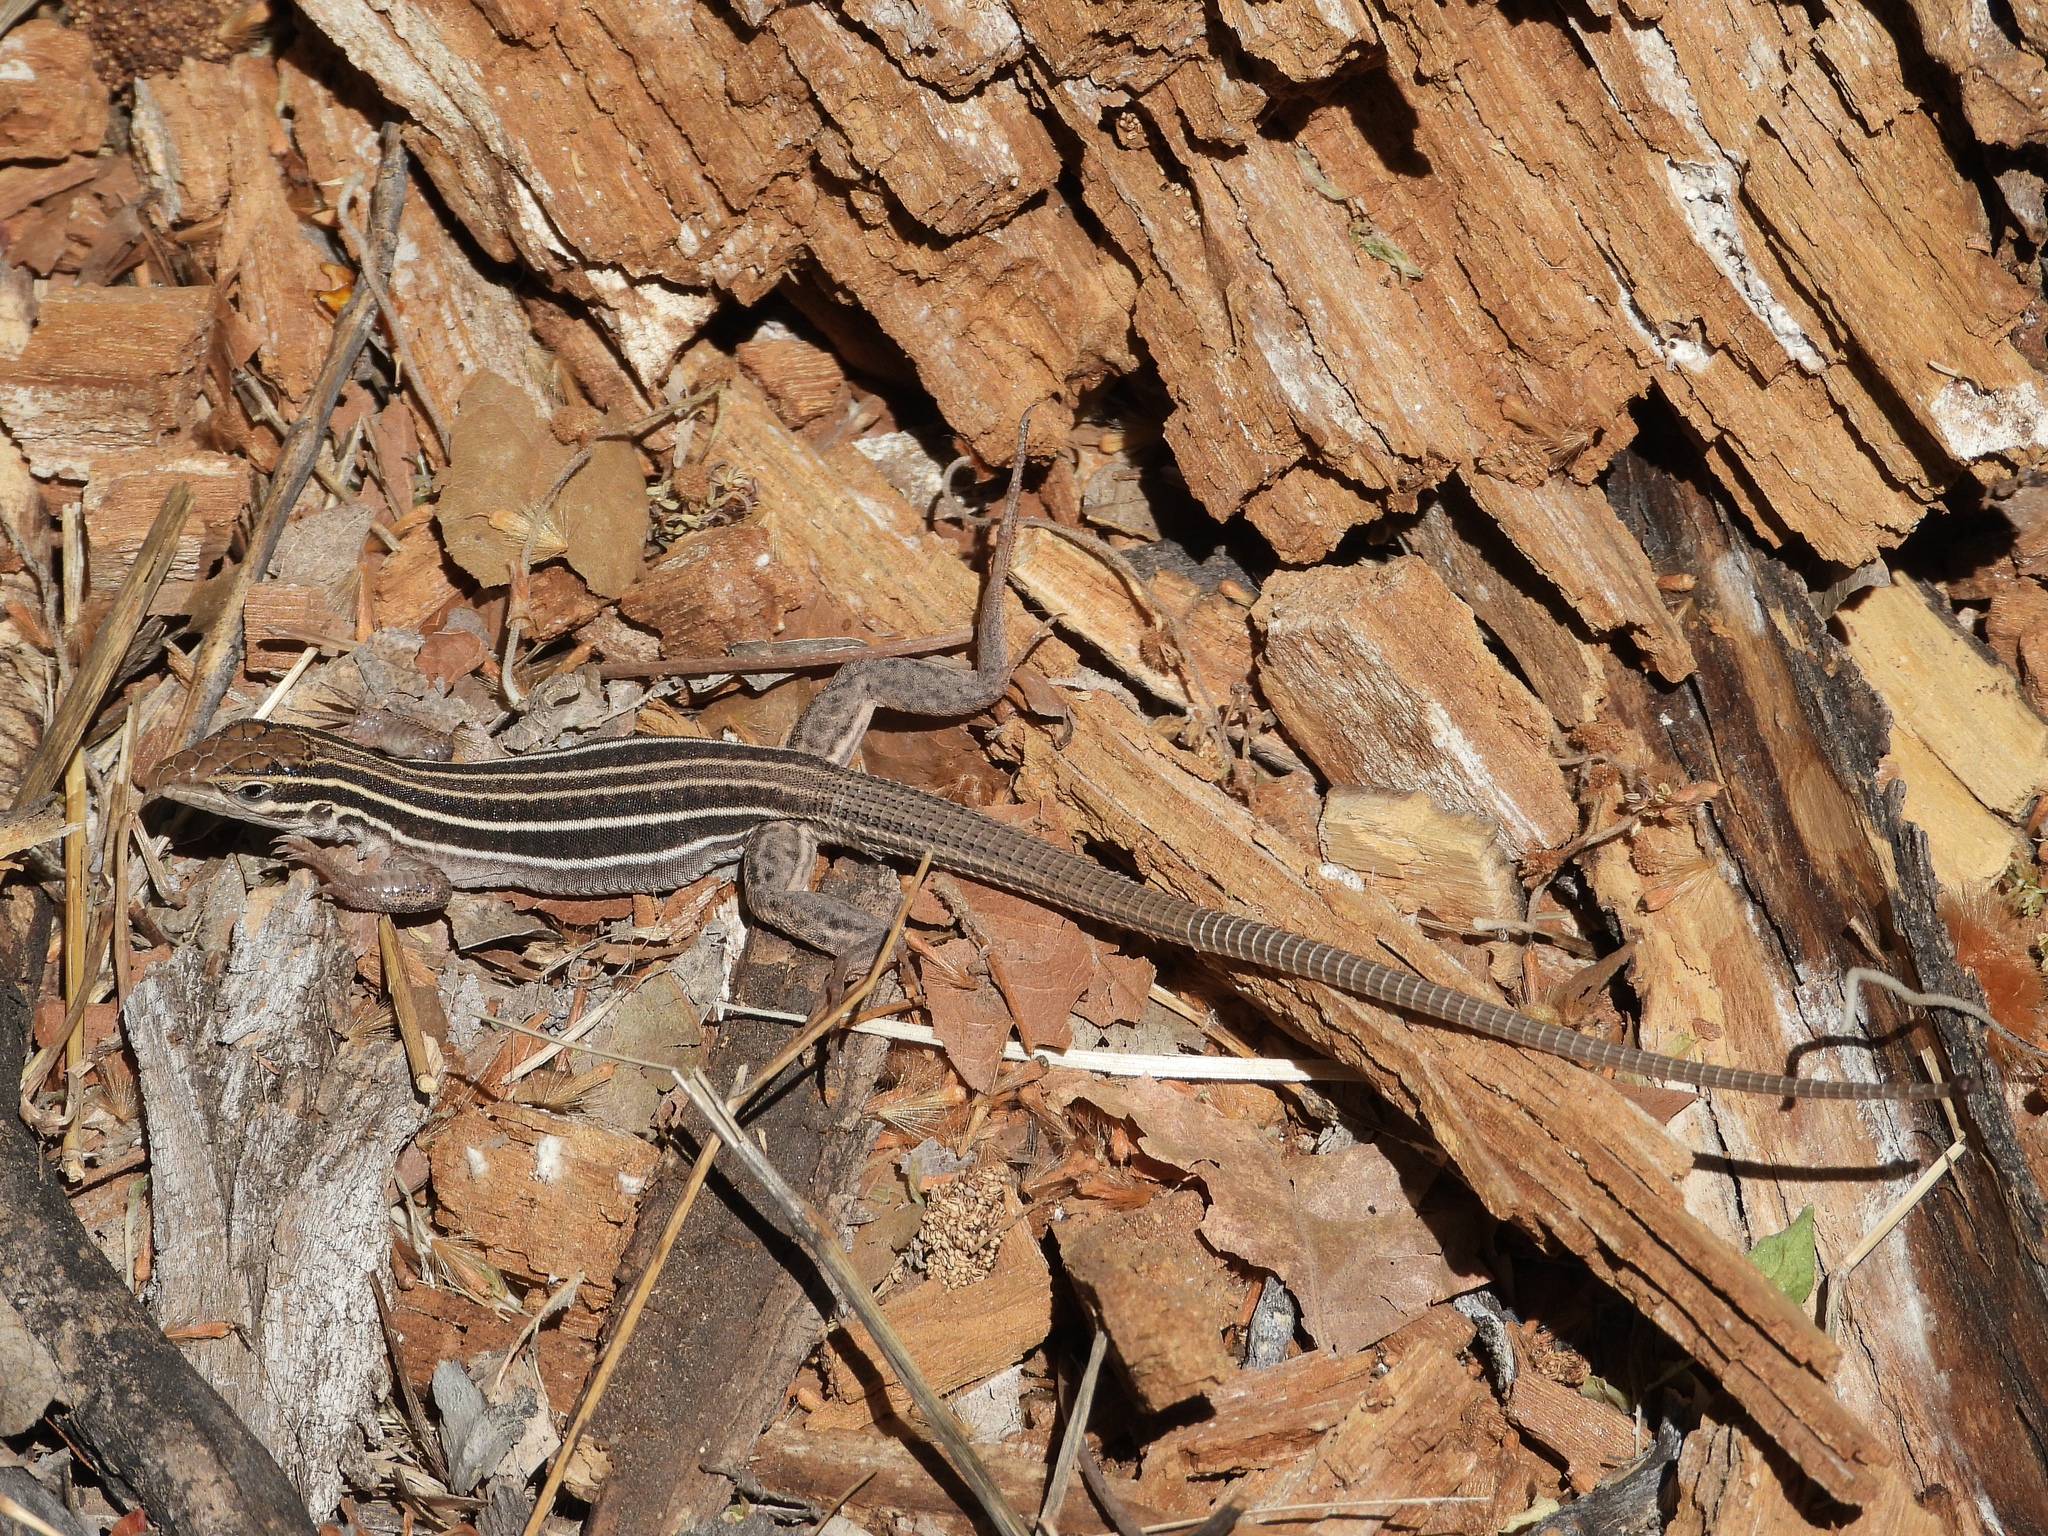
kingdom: Animalia
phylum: Chordata
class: Squamata
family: Teiidae
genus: Aspidoscelis
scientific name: Aspidoscelis sonorae
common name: Sonoran spotted whiptail
